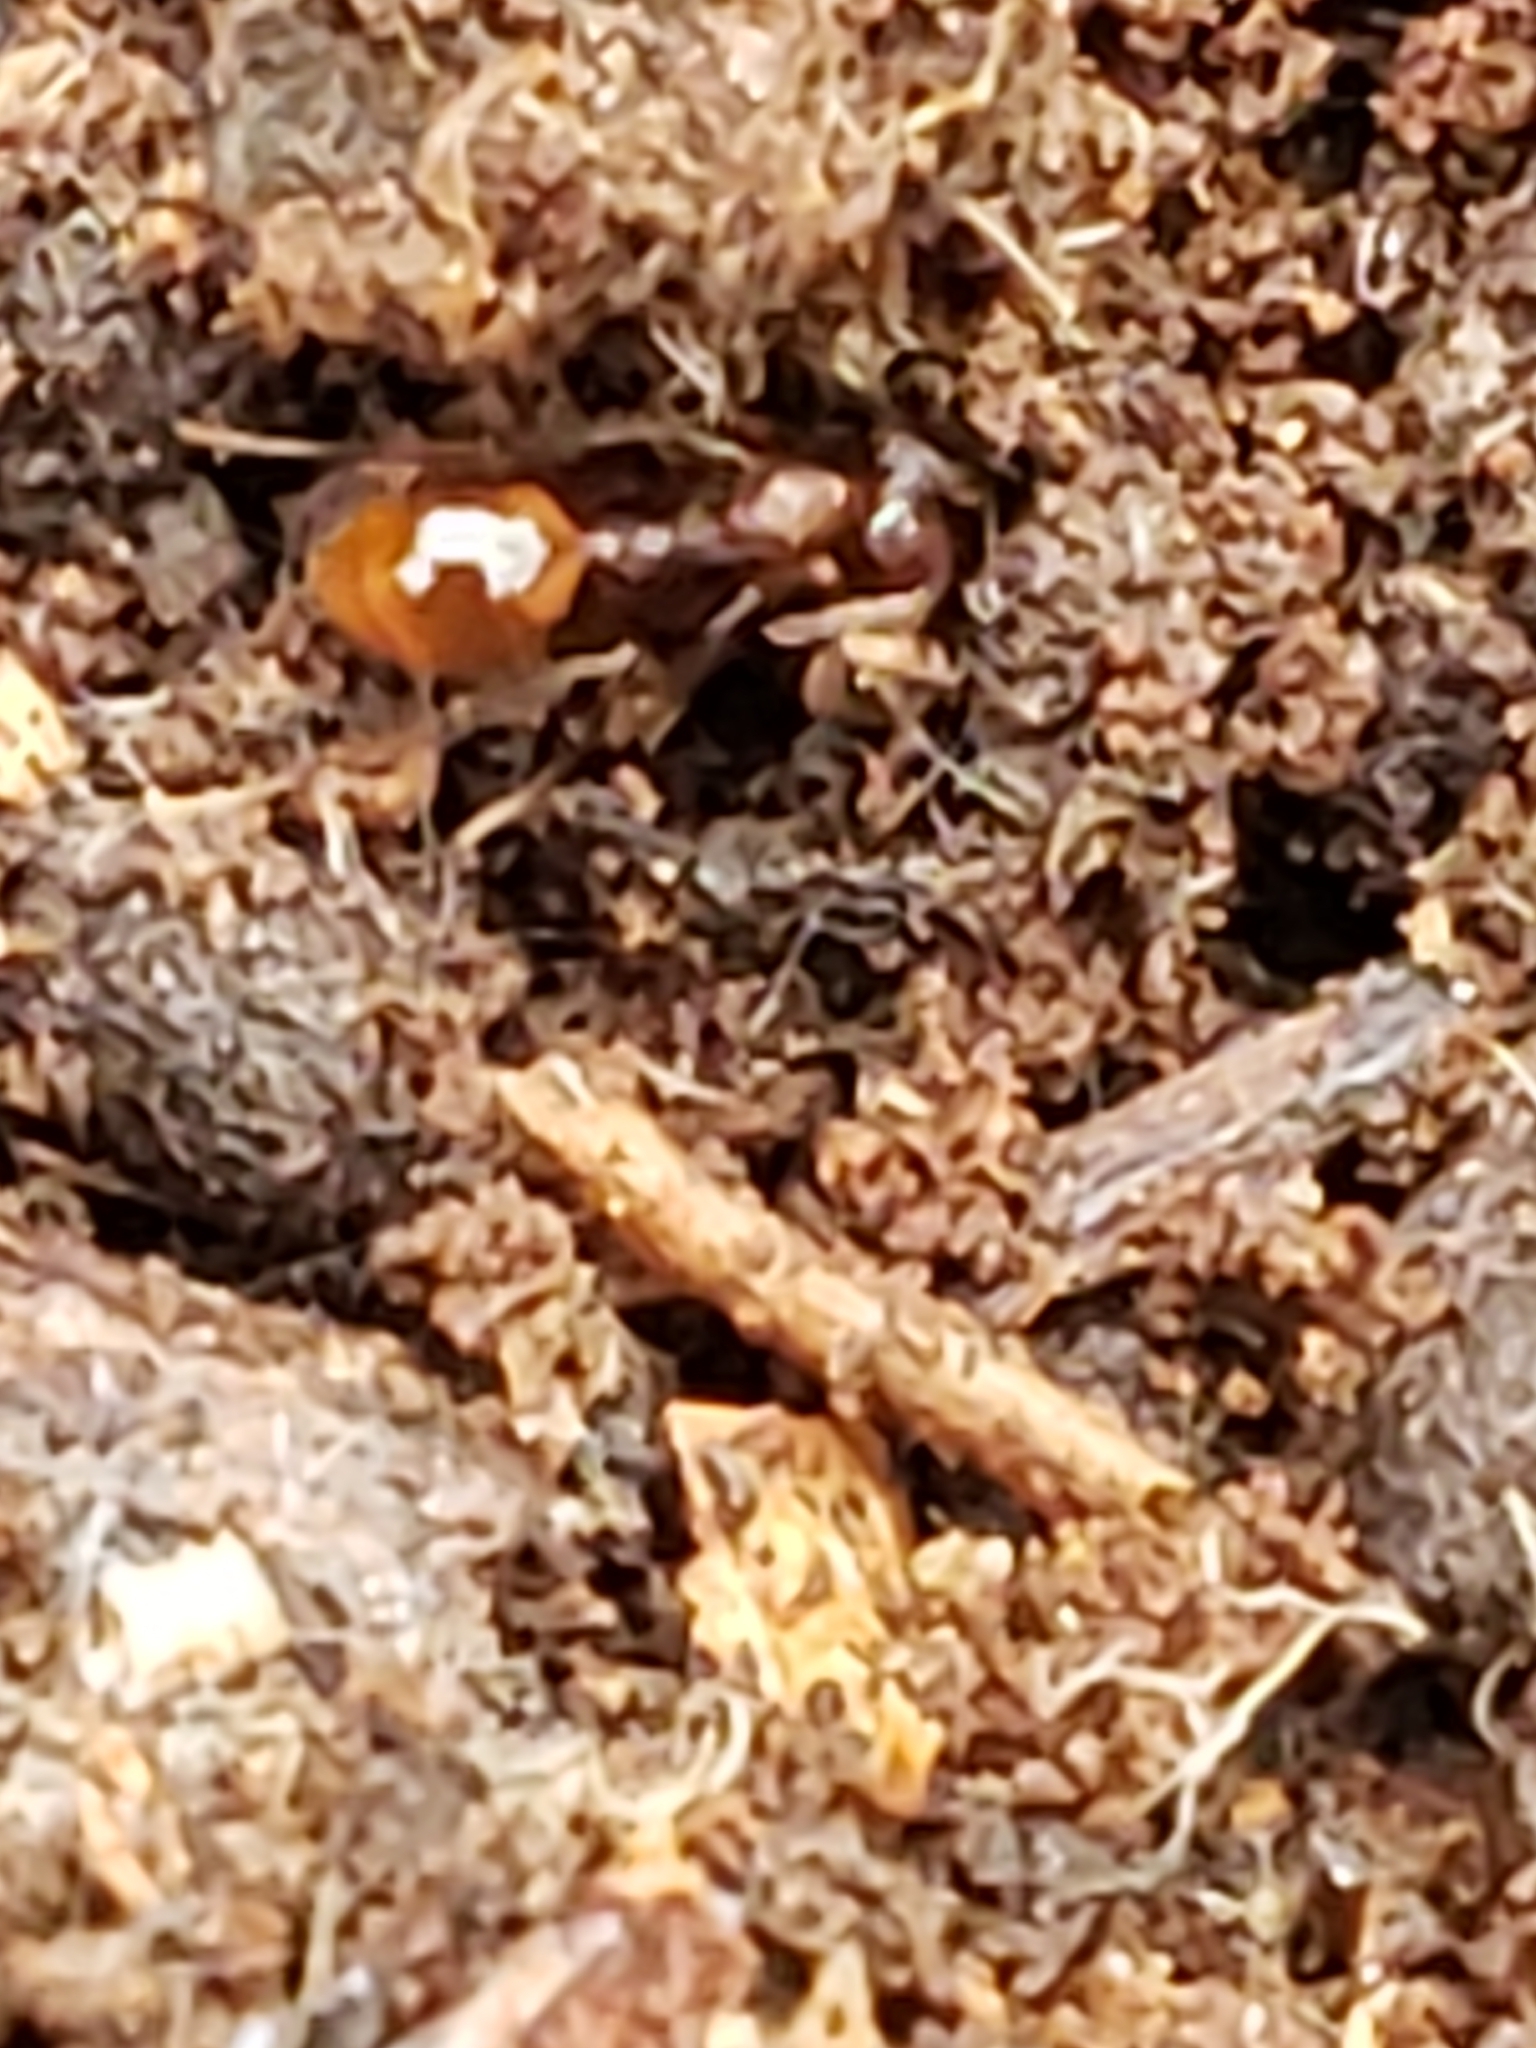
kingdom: Animalia
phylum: Arthropoda
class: Insecta
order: Hymenoptera
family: Formicidae
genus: Aphaenogaster
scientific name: Aphaenogaster fulva
